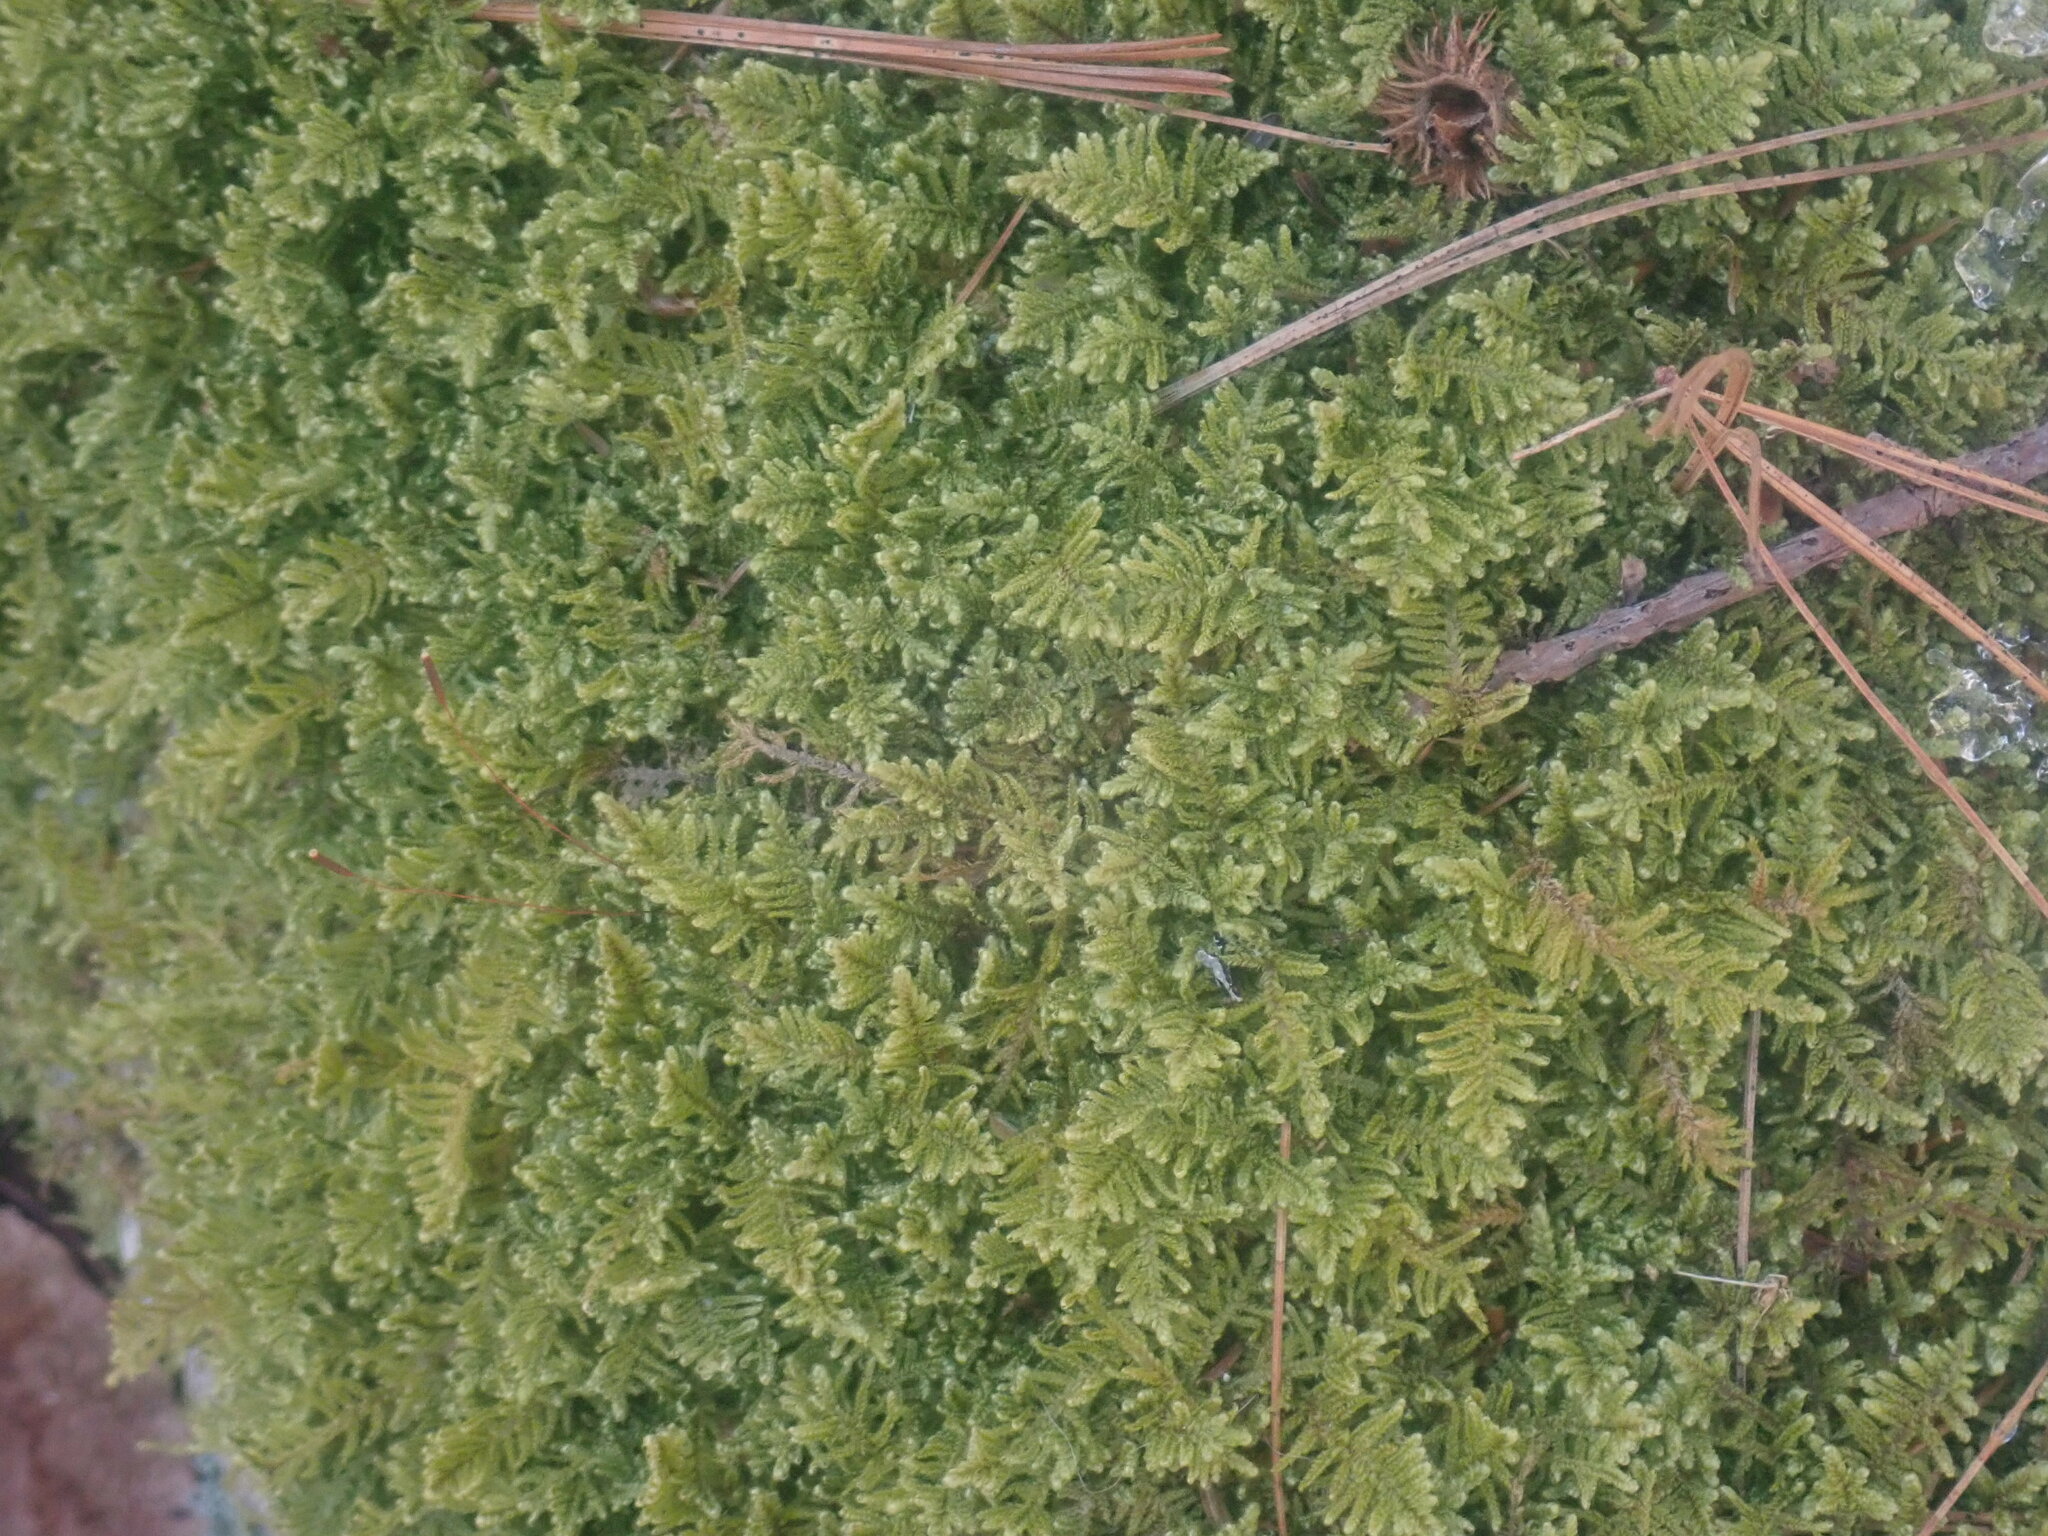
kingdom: Plantae
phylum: Bryophyta
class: Bryopsida
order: Hypnales
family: Callicladiaceae
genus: Callicladium
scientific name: Callicladium imponens
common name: Brocade moss
